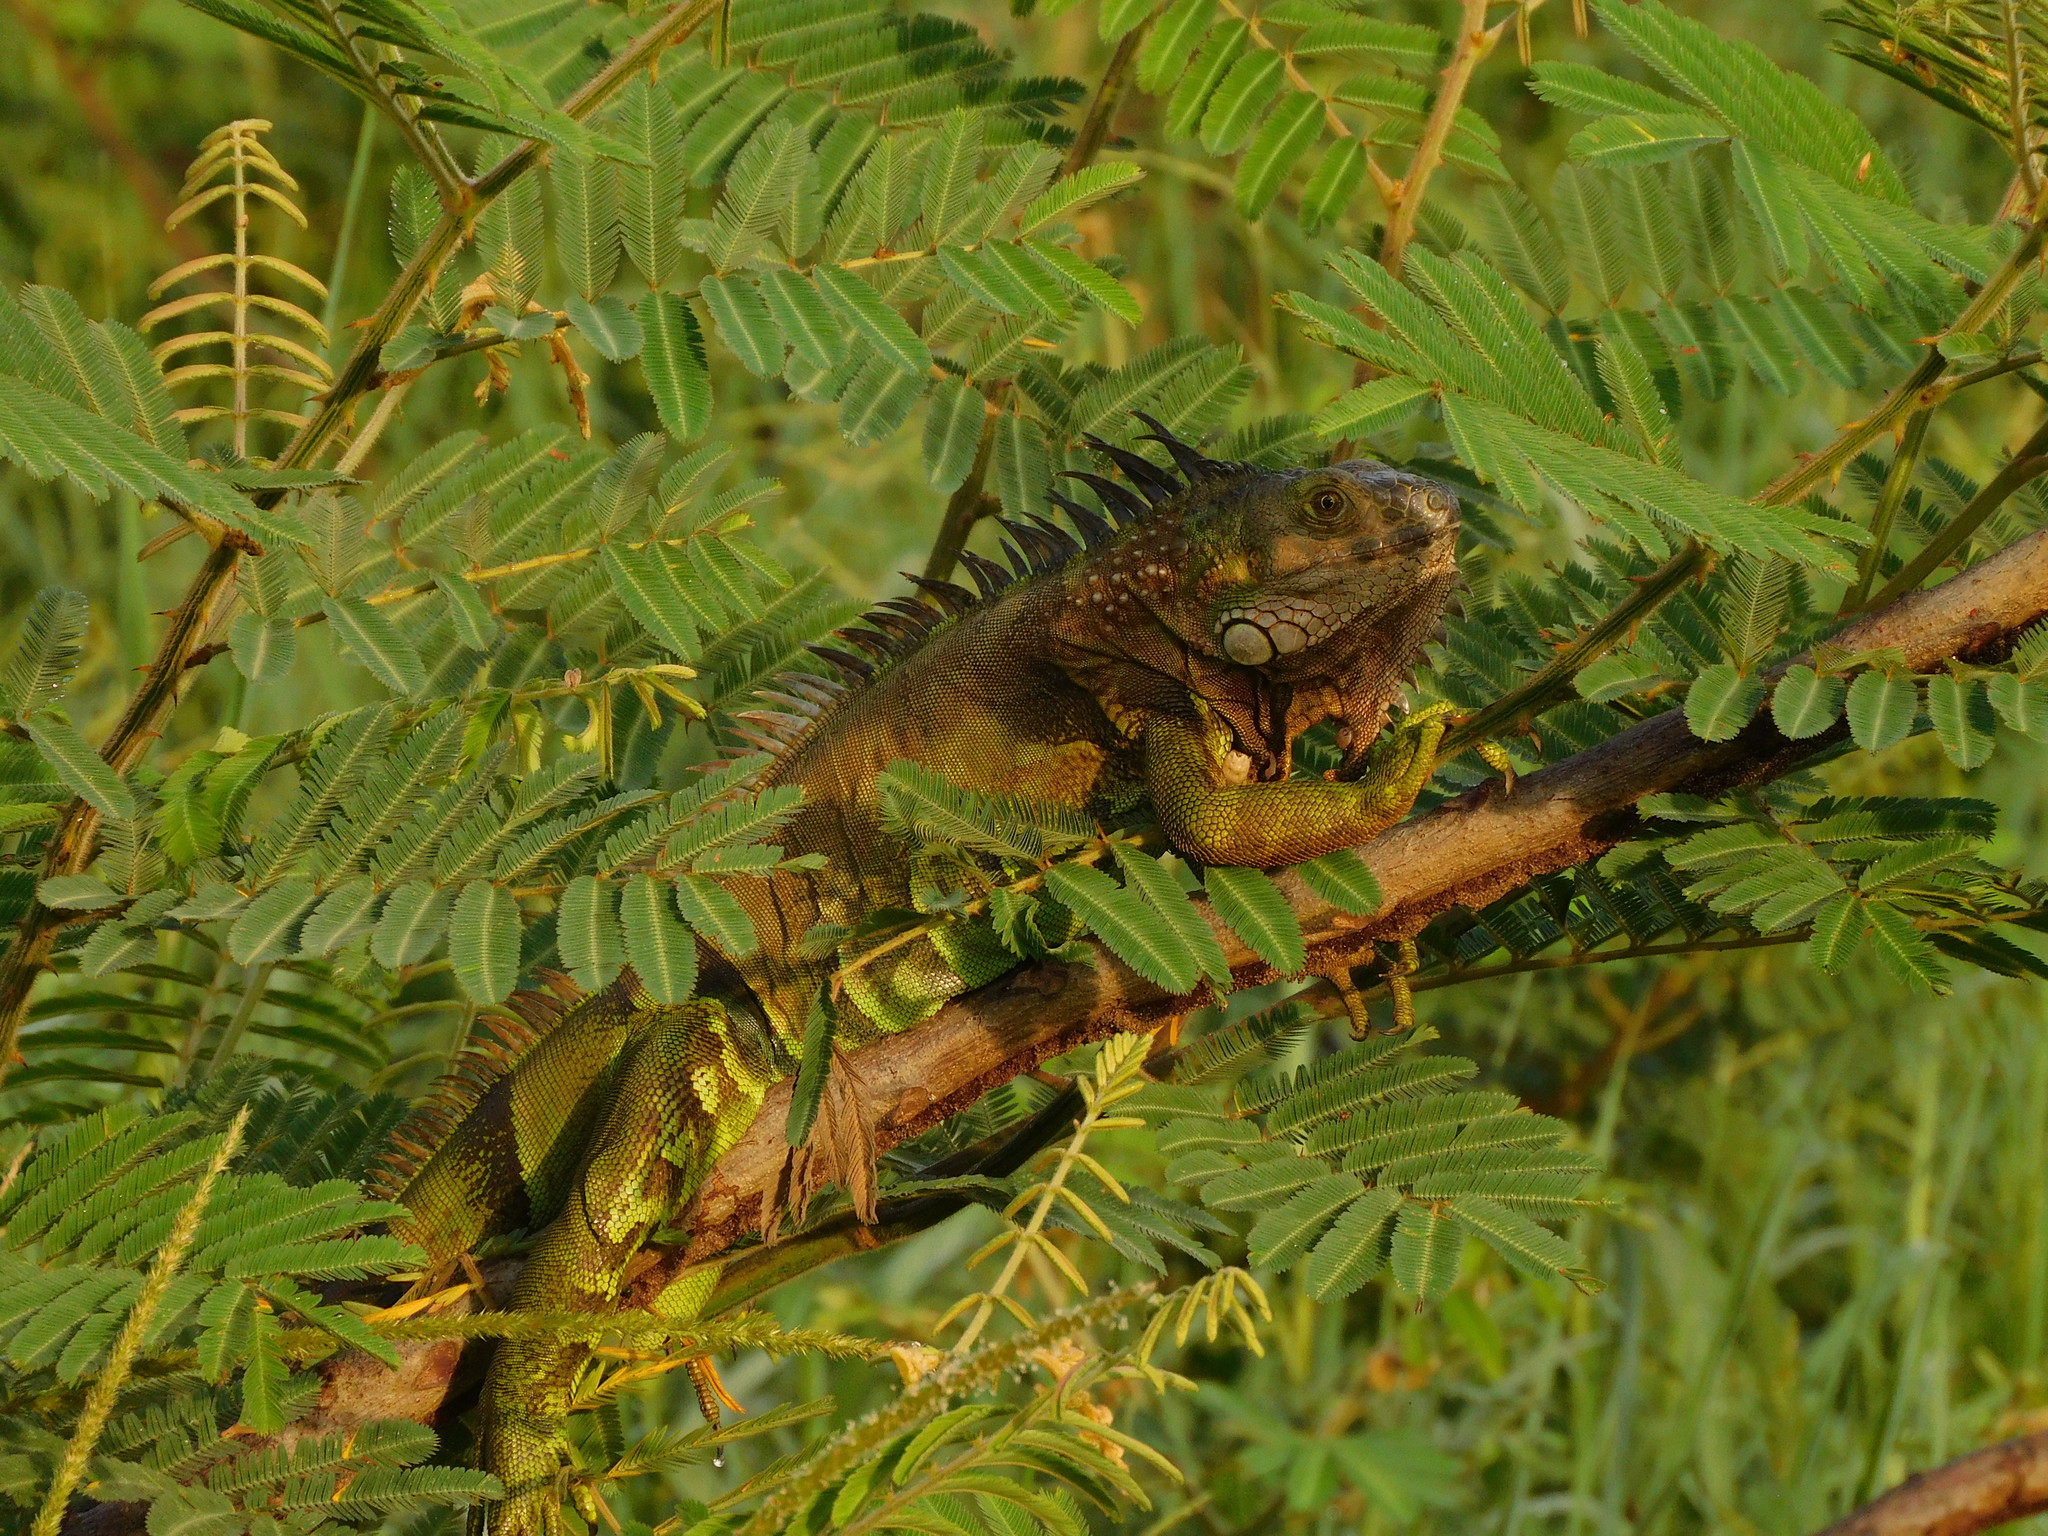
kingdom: Animalia
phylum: Chordata
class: Squamata
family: Iguanidae
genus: Iguana
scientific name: Iguana iguana
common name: Green iguana
